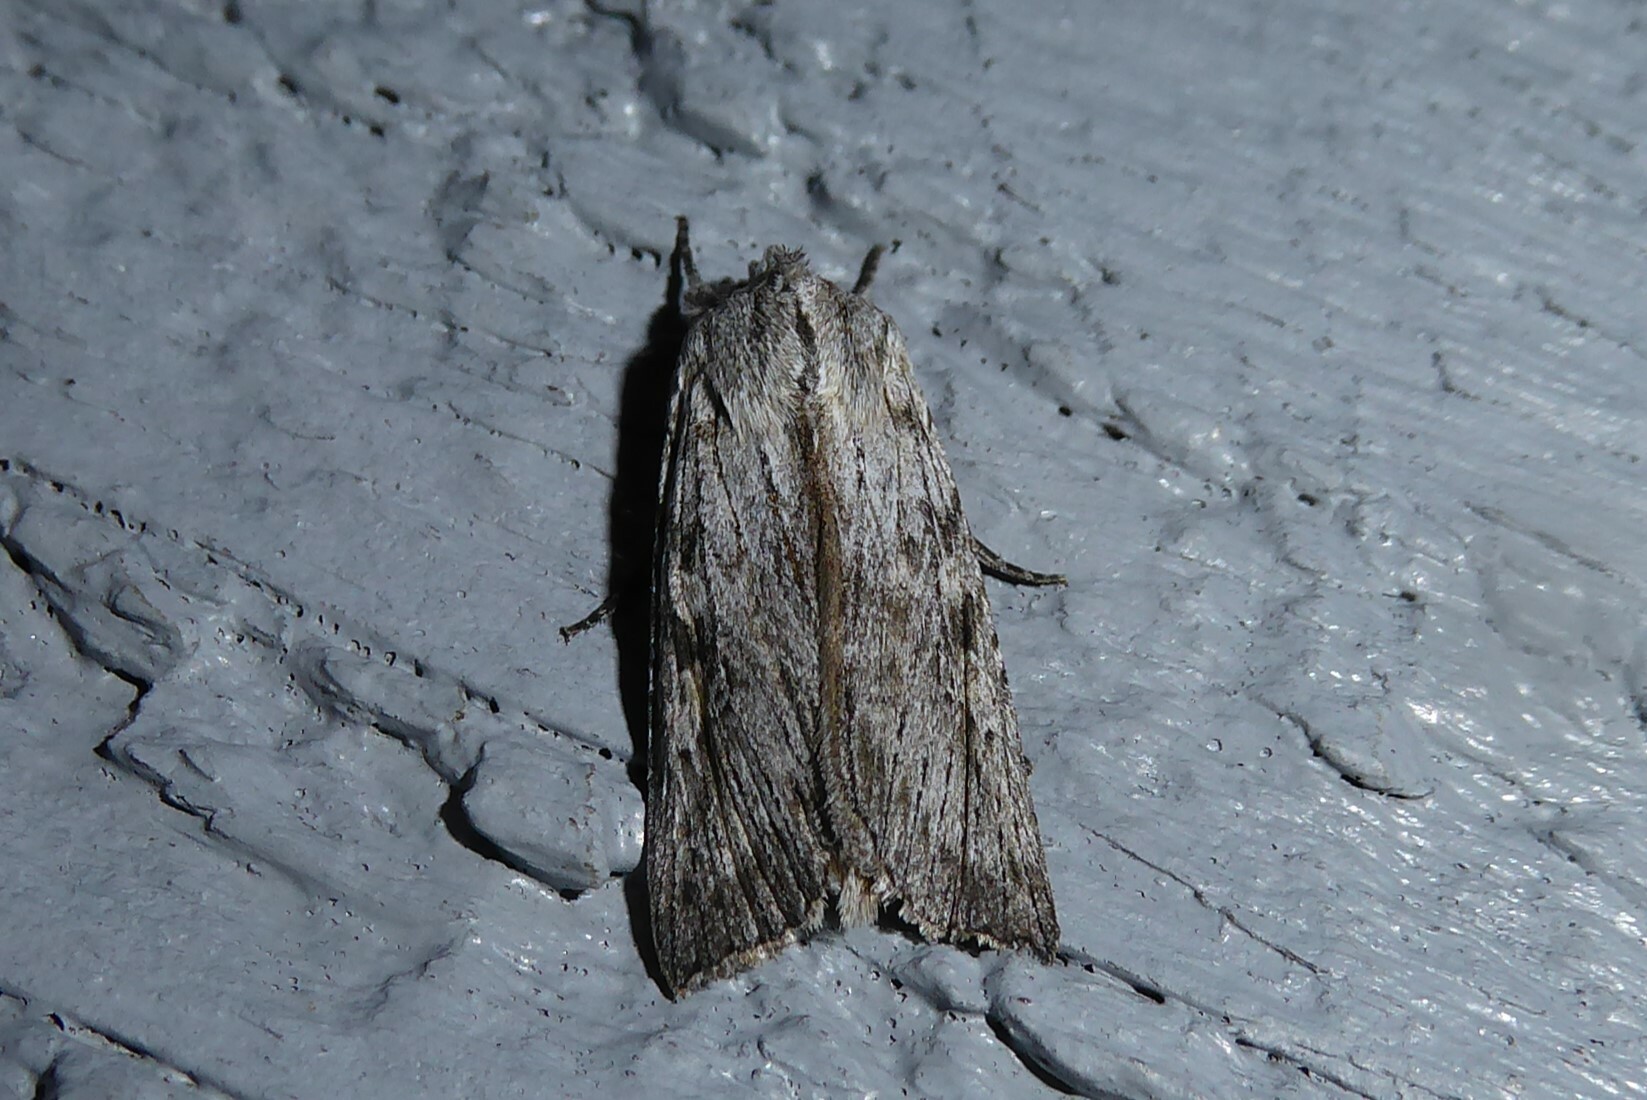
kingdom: Animalia
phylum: Arthropoda
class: Insecta
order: Lepidoptera
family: Noctuidae
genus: Physetica
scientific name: Physetica phricias
